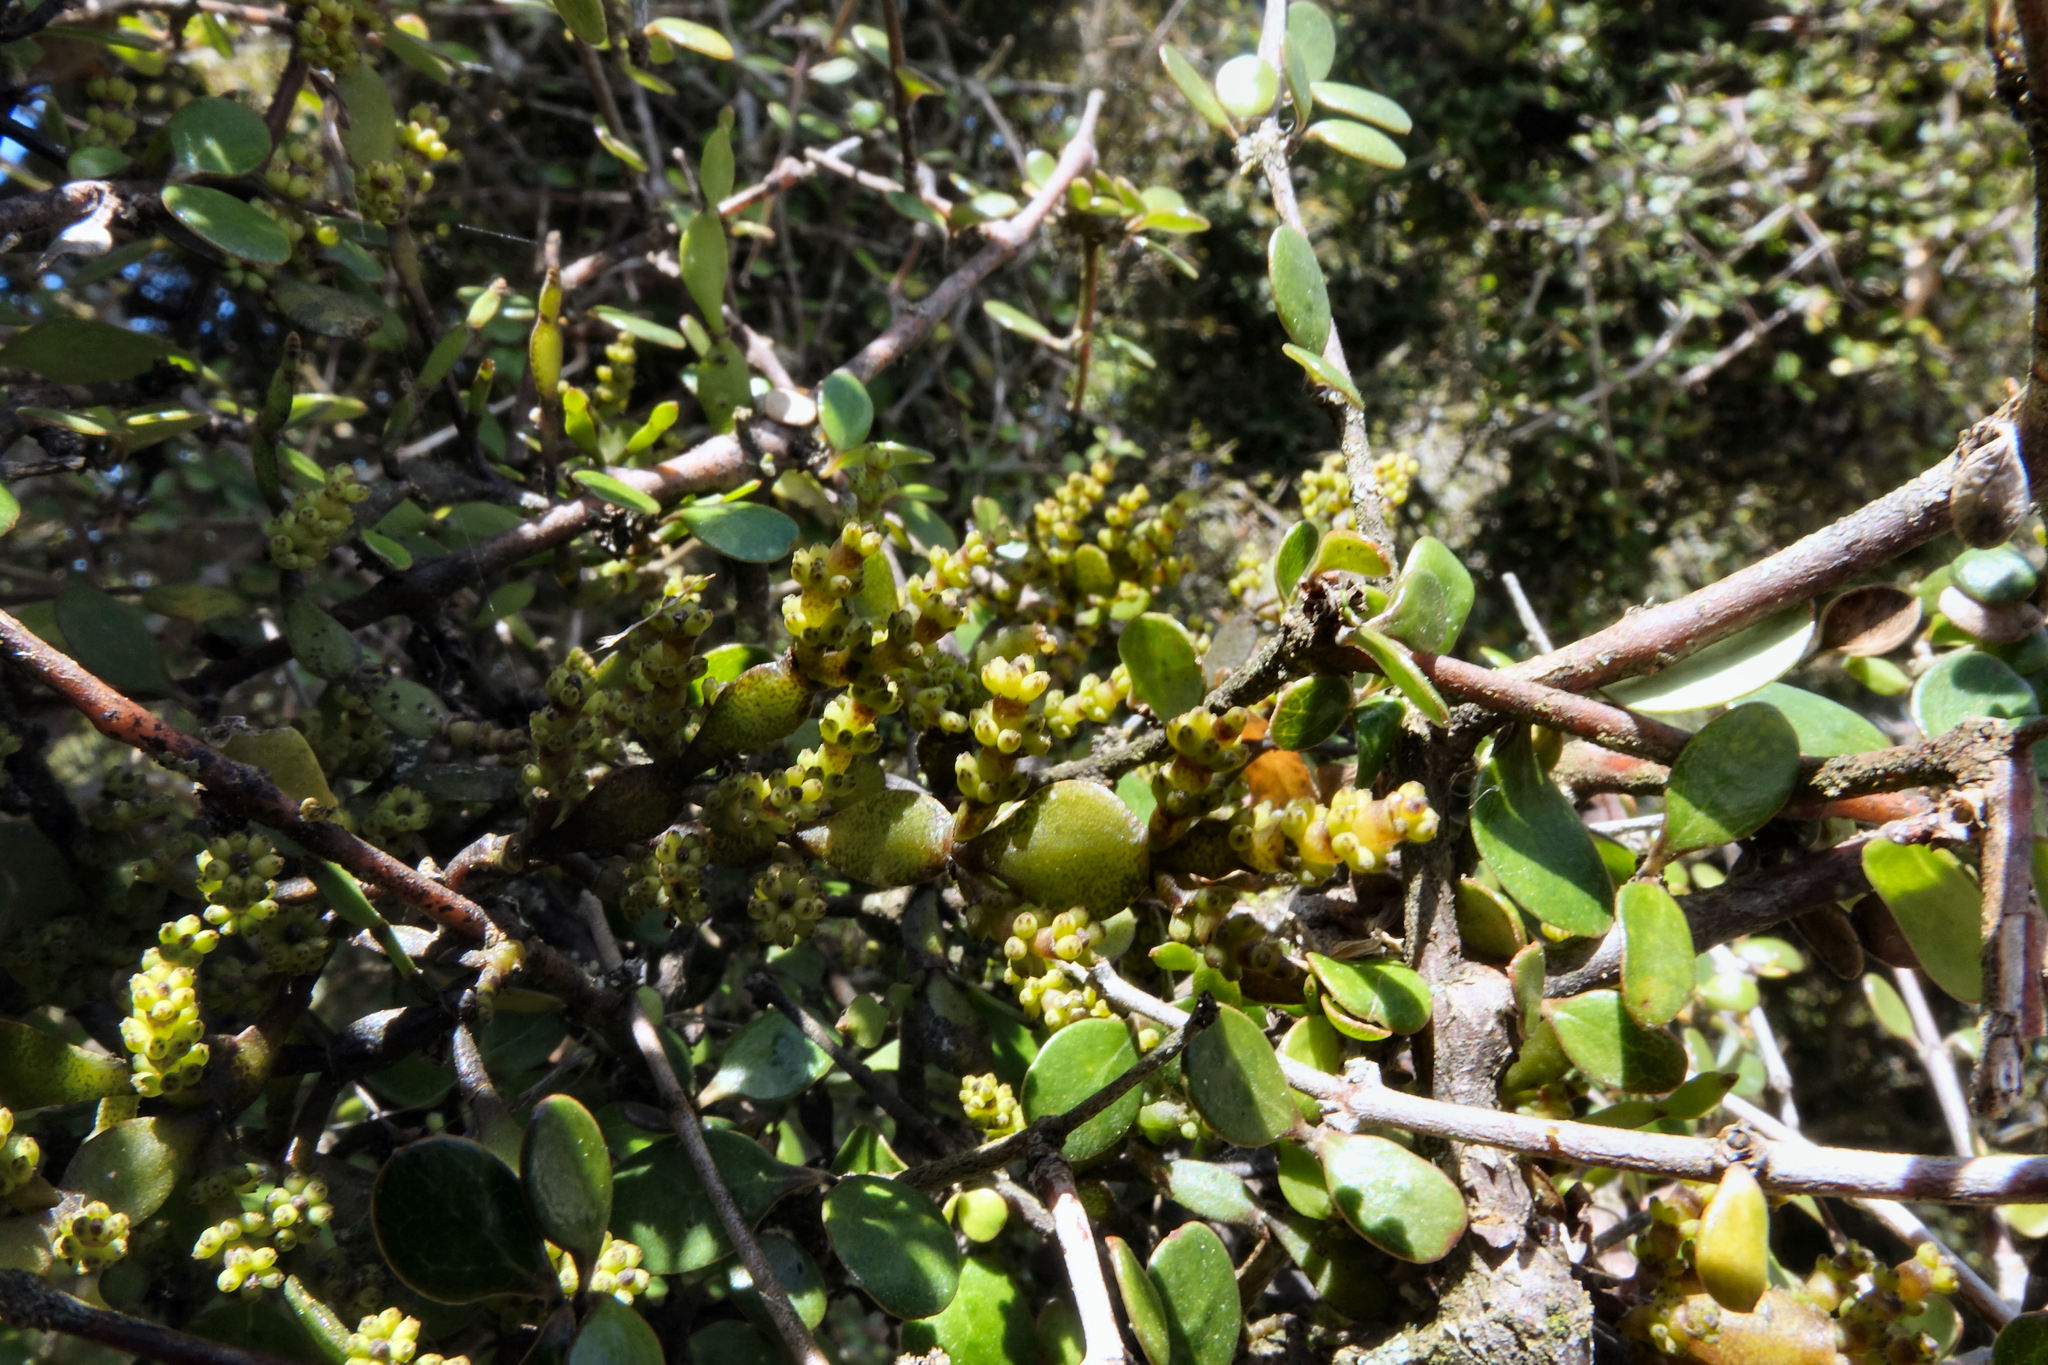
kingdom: Plantae
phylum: Tracheophyta
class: Magnoliopsida
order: Santalales
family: Viscaceae
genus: Korthalsella
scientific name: Korthalsella lindsayi
